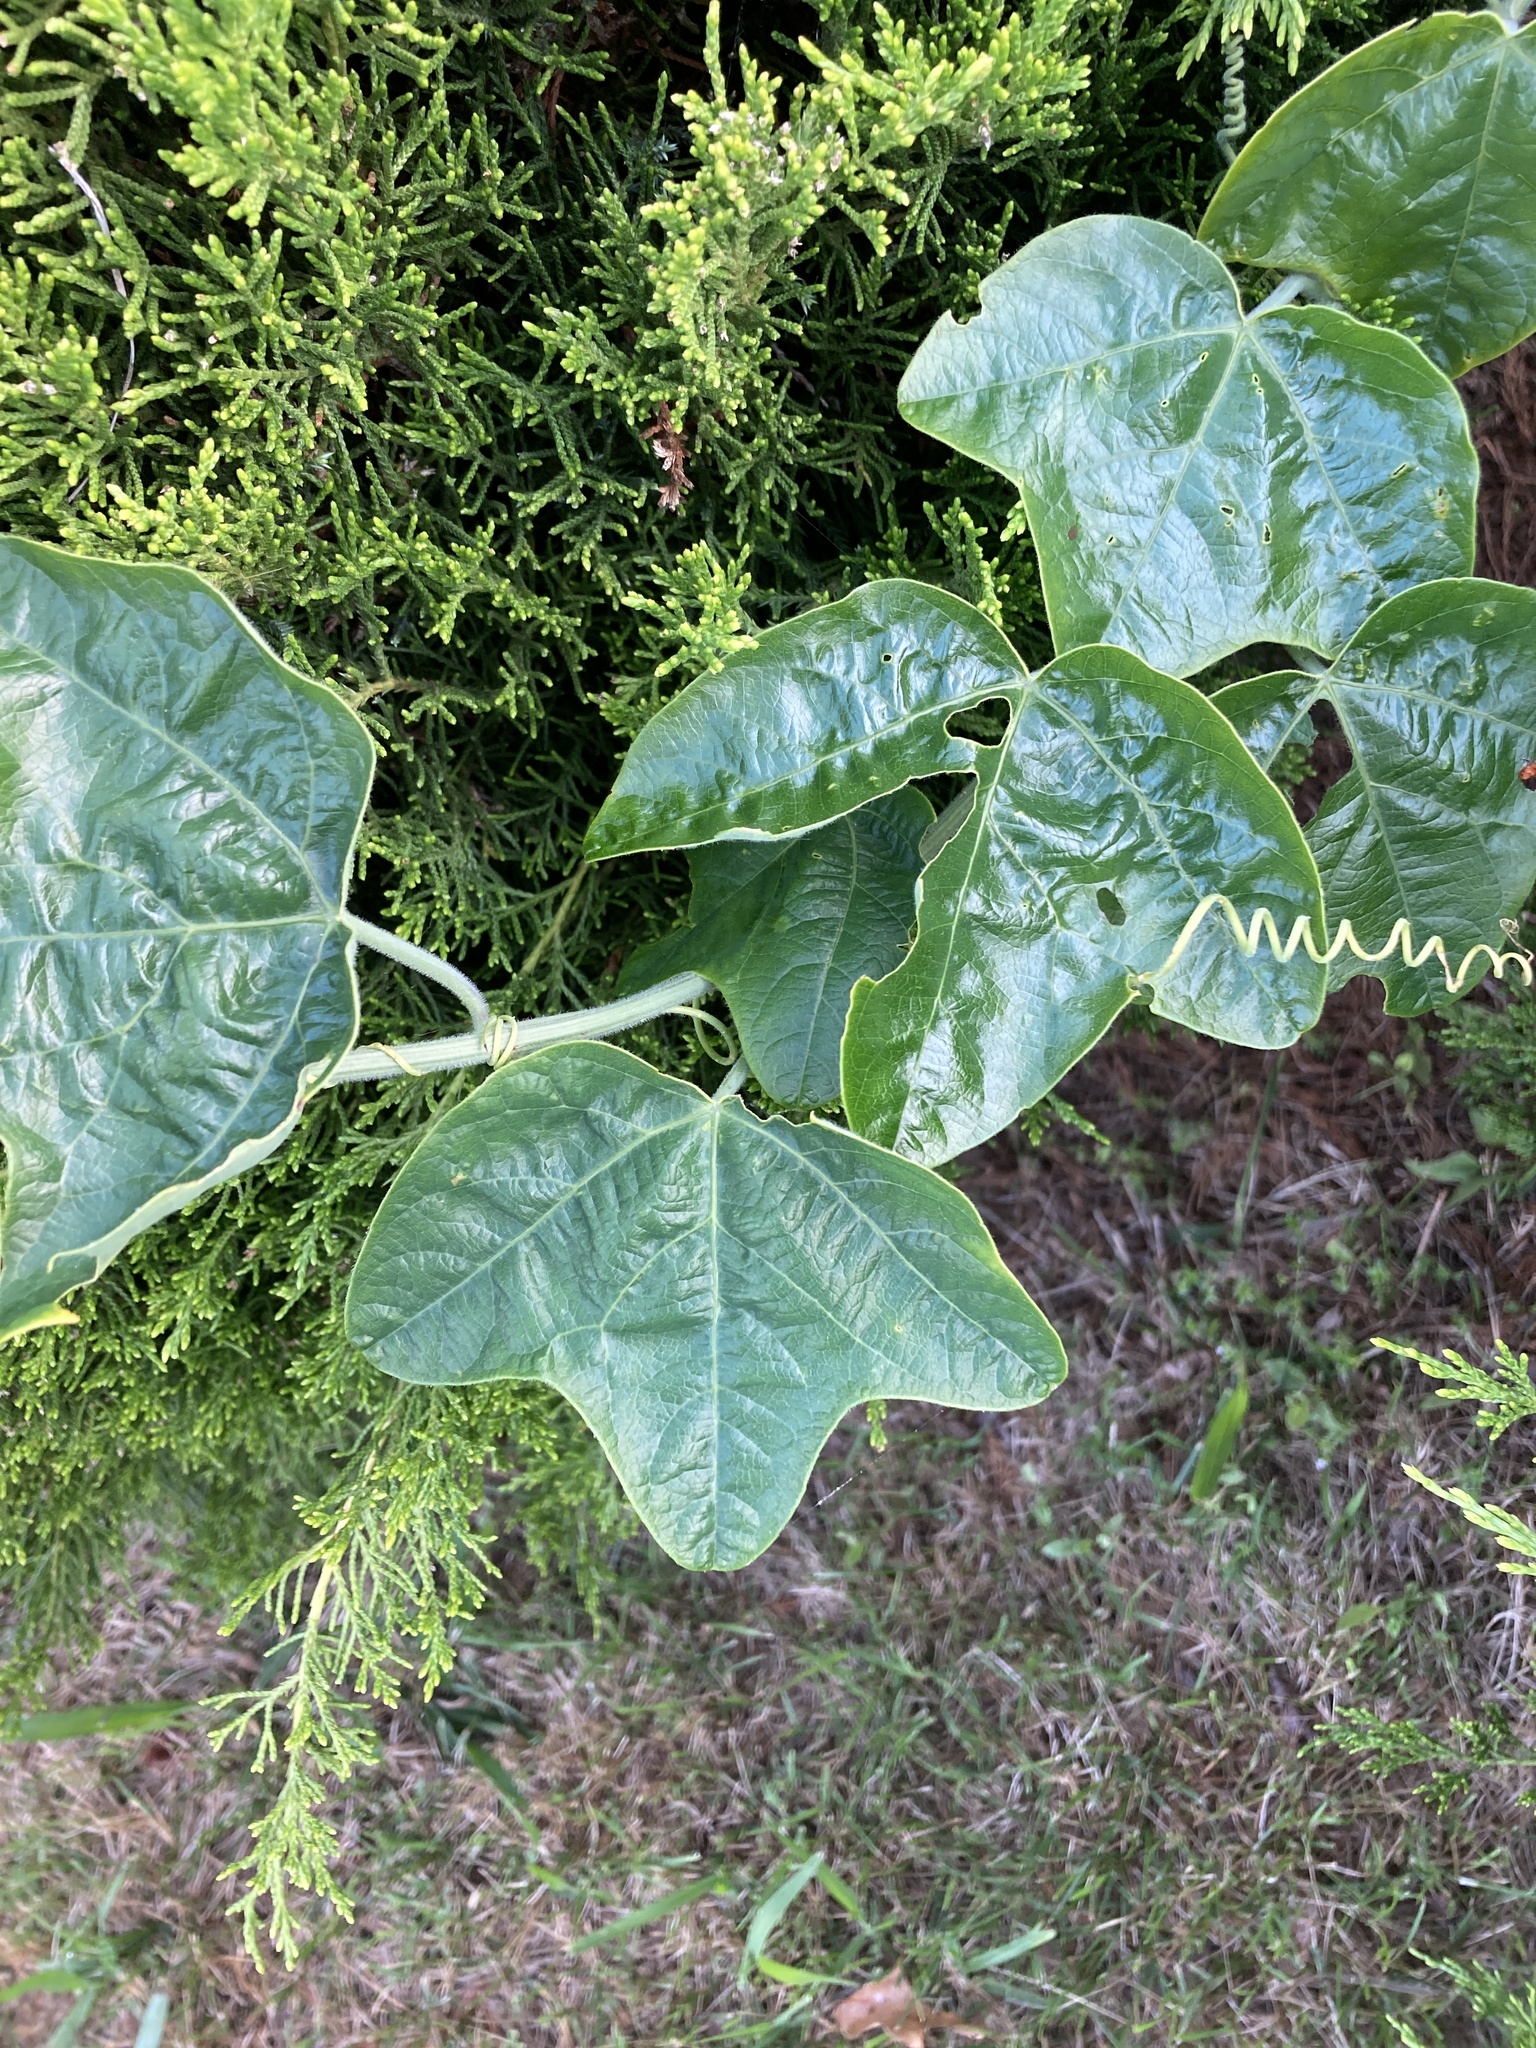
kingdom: Plantae
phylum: Tracheophyta
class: Magnoliopsida
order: Malpighiales
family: Passifloraceae
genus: Passiflora
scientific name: Passiflora lutea
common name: Yellow passionflower
